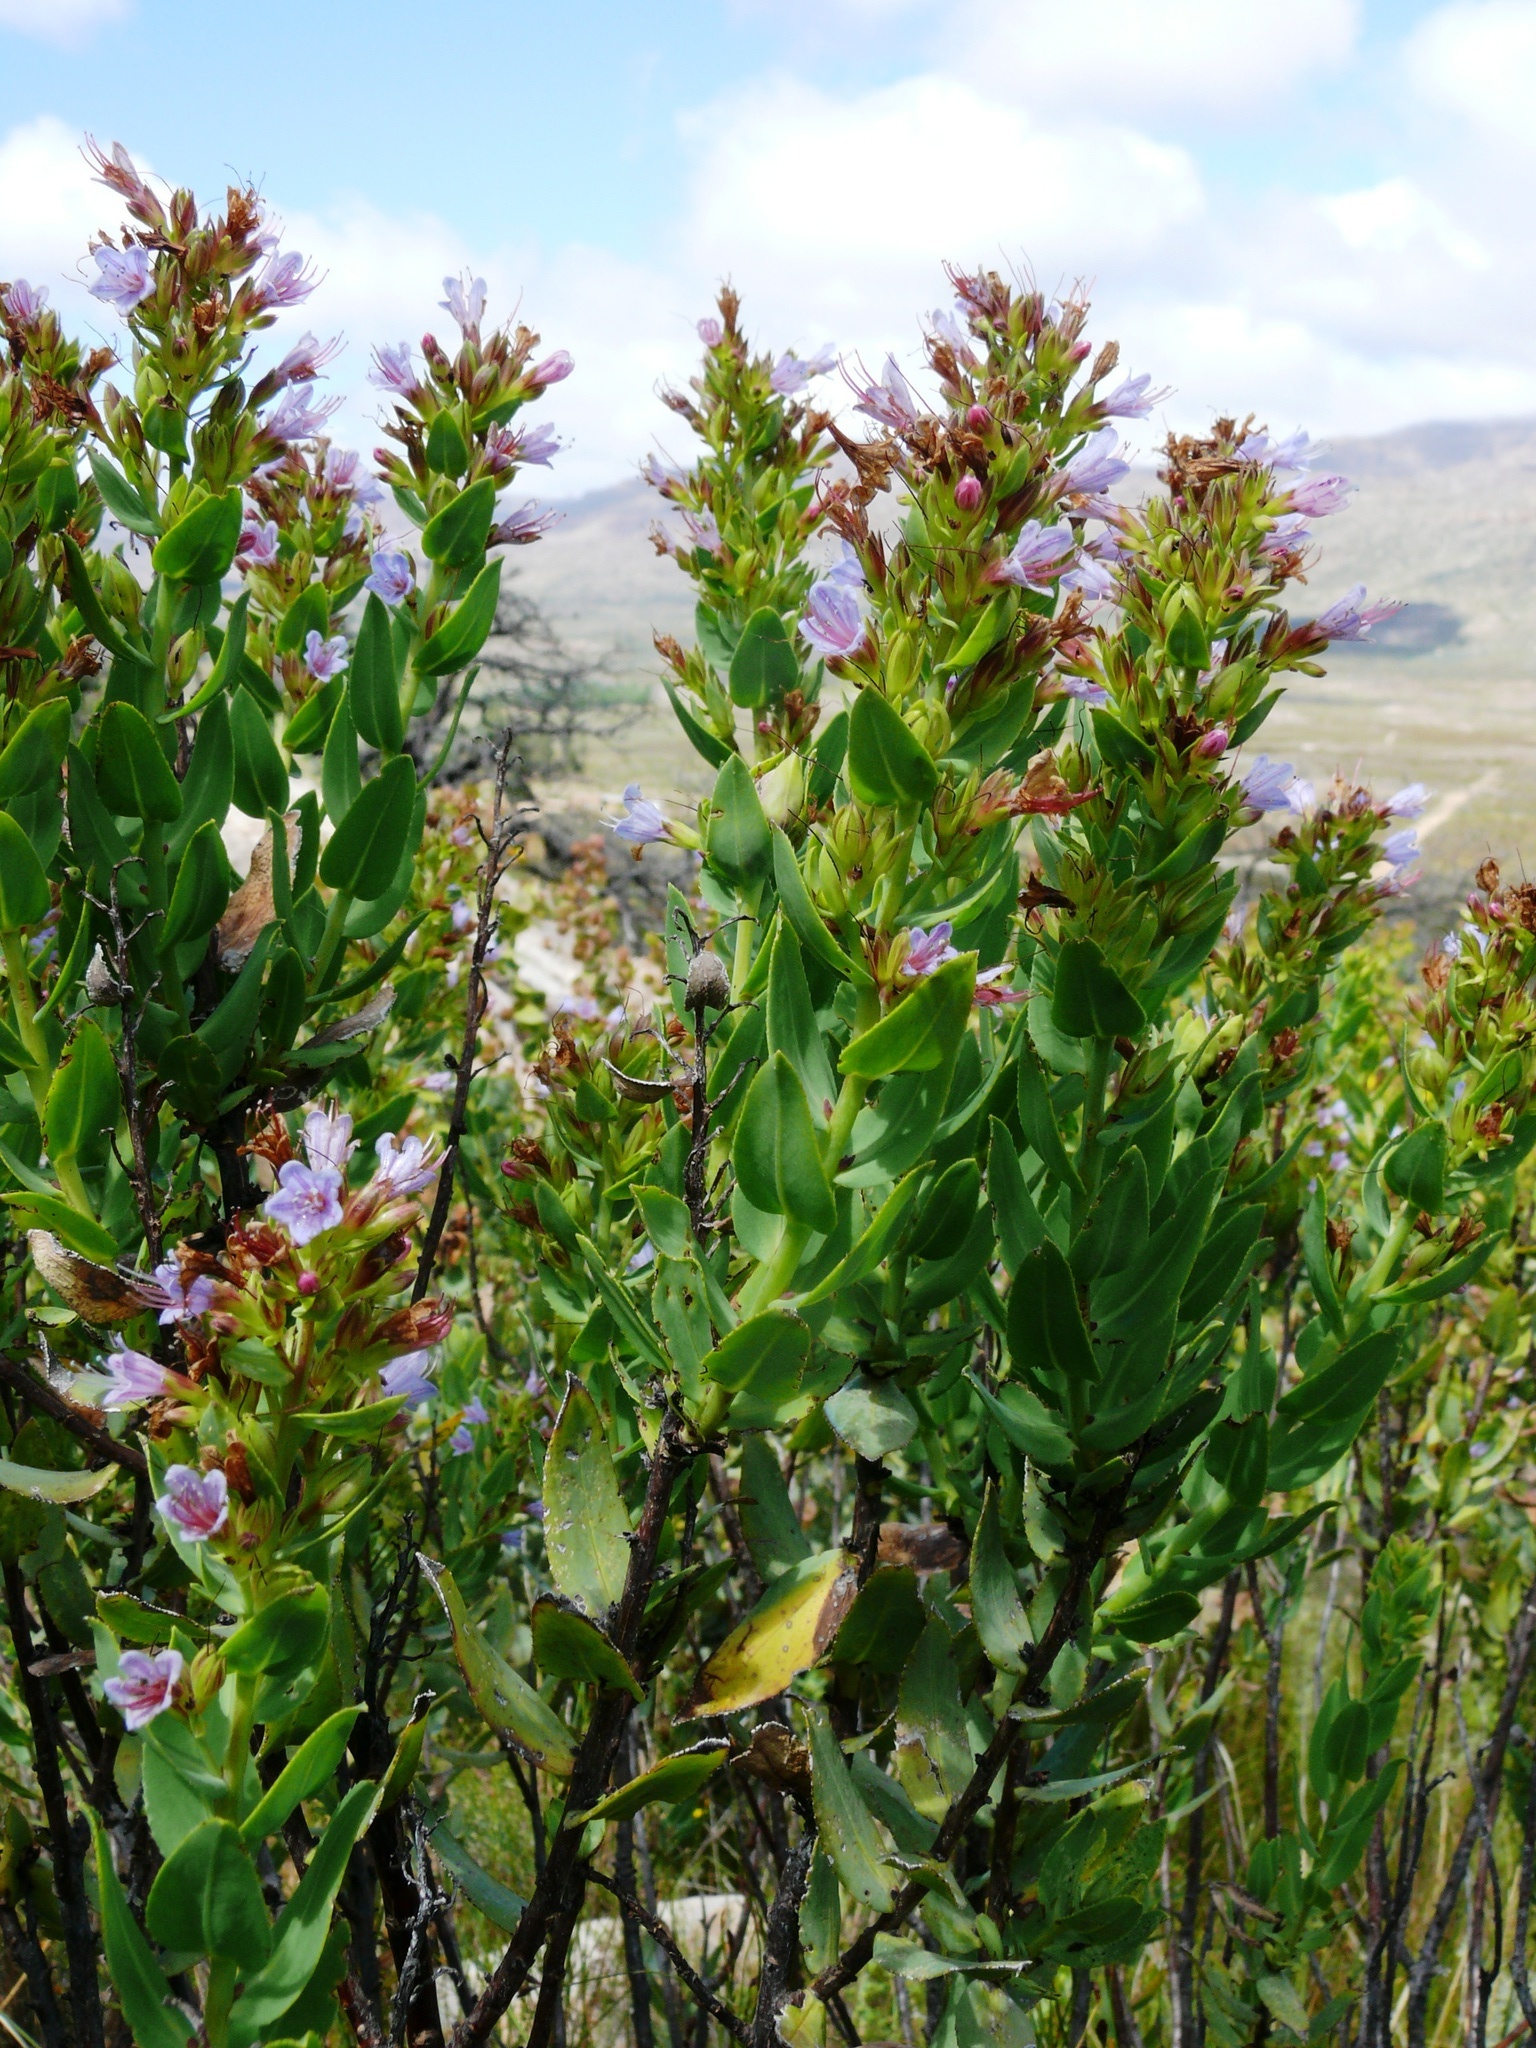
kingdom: Plantae
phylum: Tracheophyta
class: Magnoliopsida
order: Boraginales
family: Boraginaceae
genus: Lobostemon
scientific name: Lobostemon laevigatus
